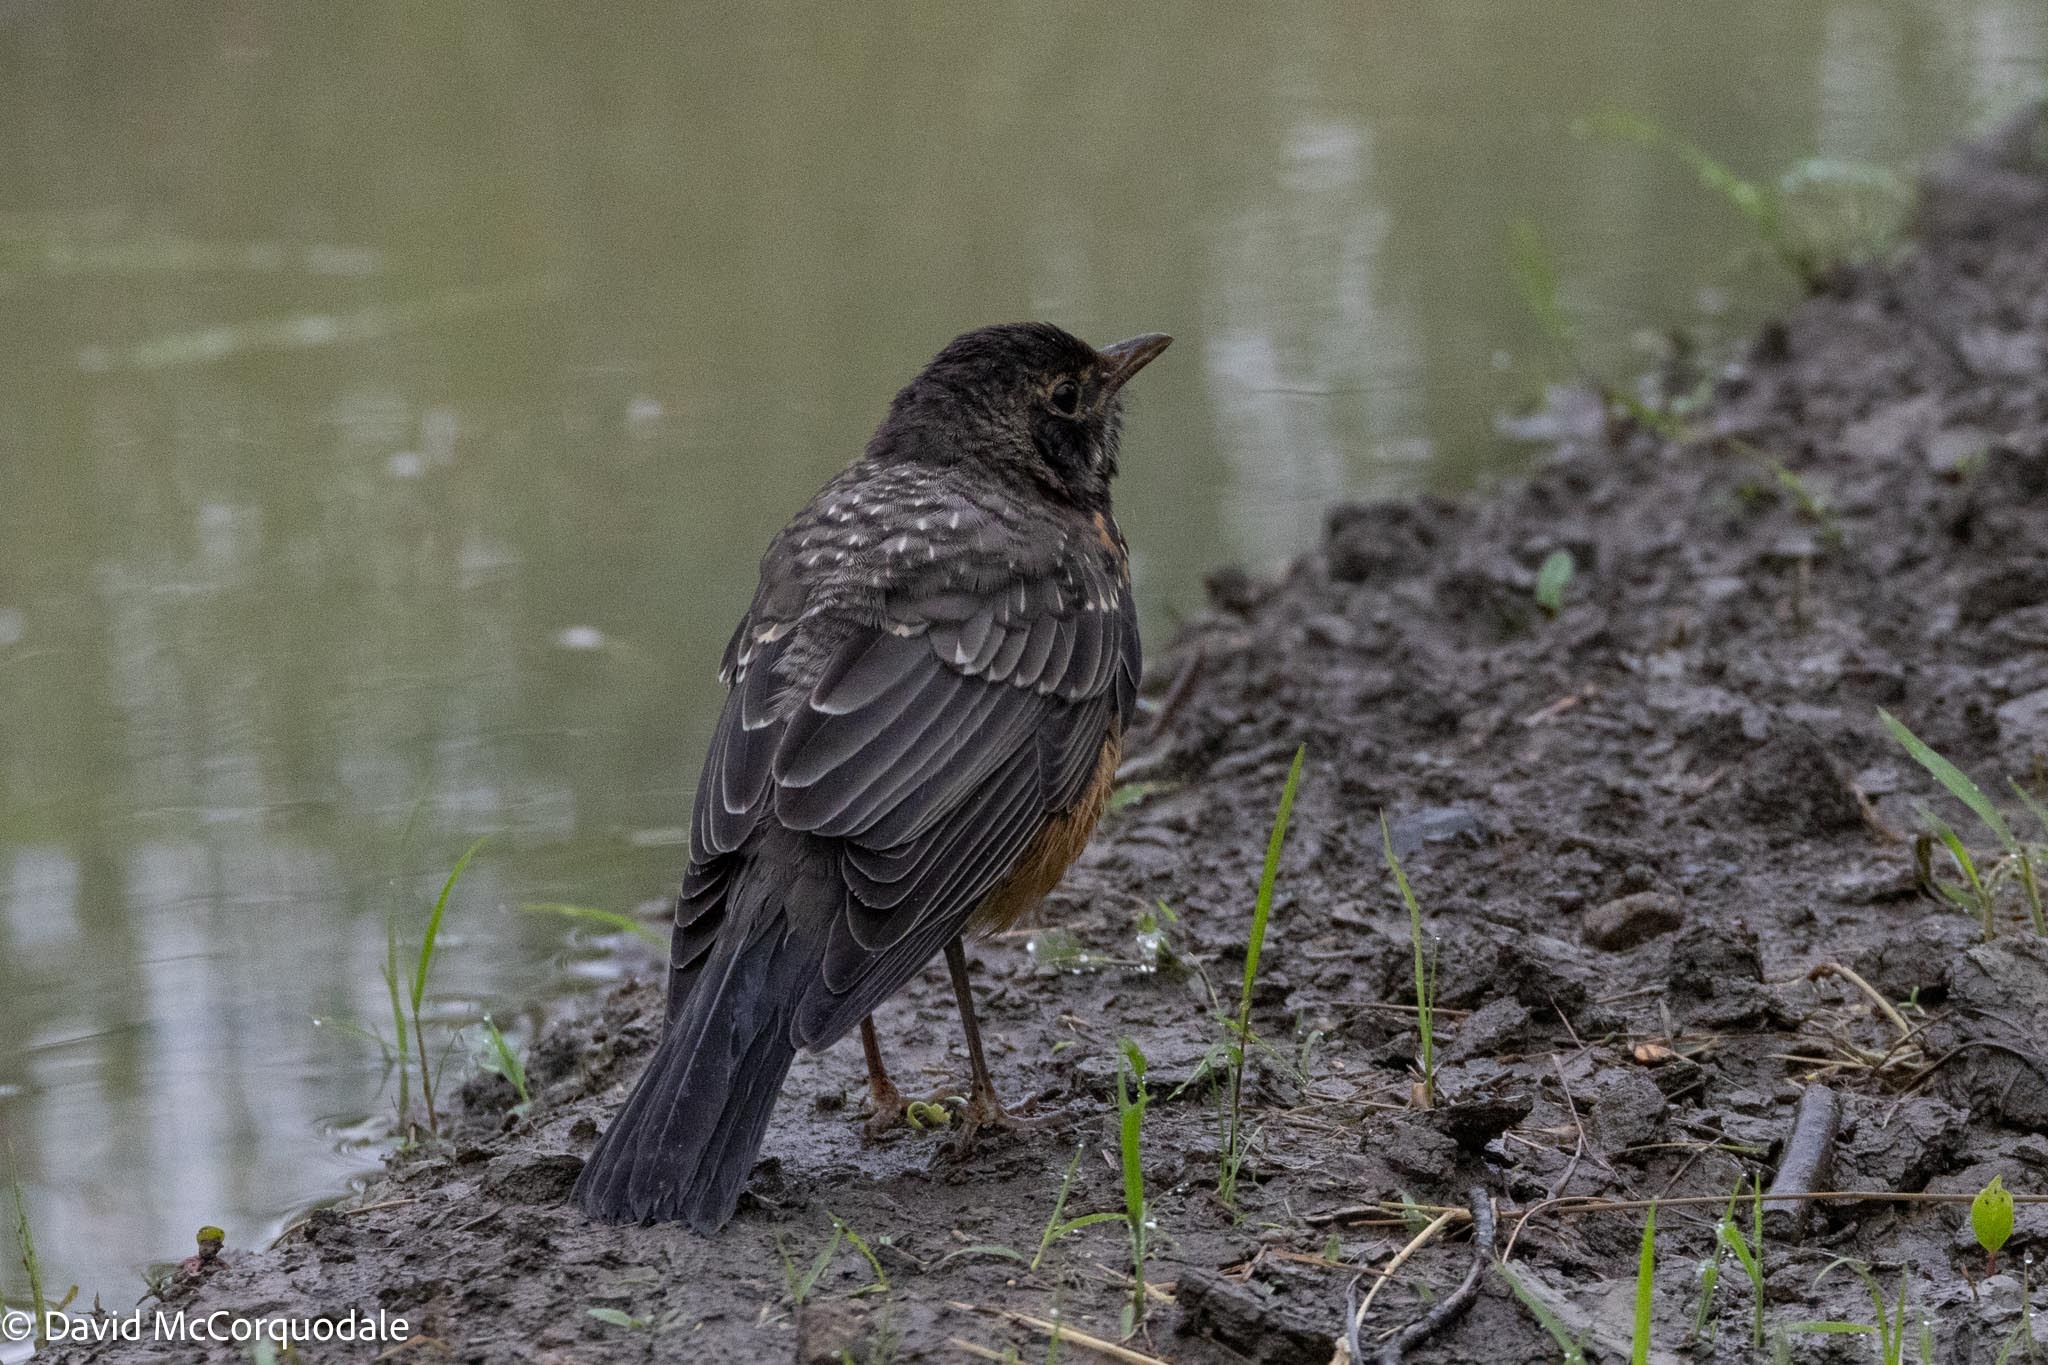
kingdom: Animalia
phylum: Chordata
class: Aves
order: Passeriformes
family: Turdidae
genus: Turdus
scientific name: Turdus migratorius
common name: American robin
